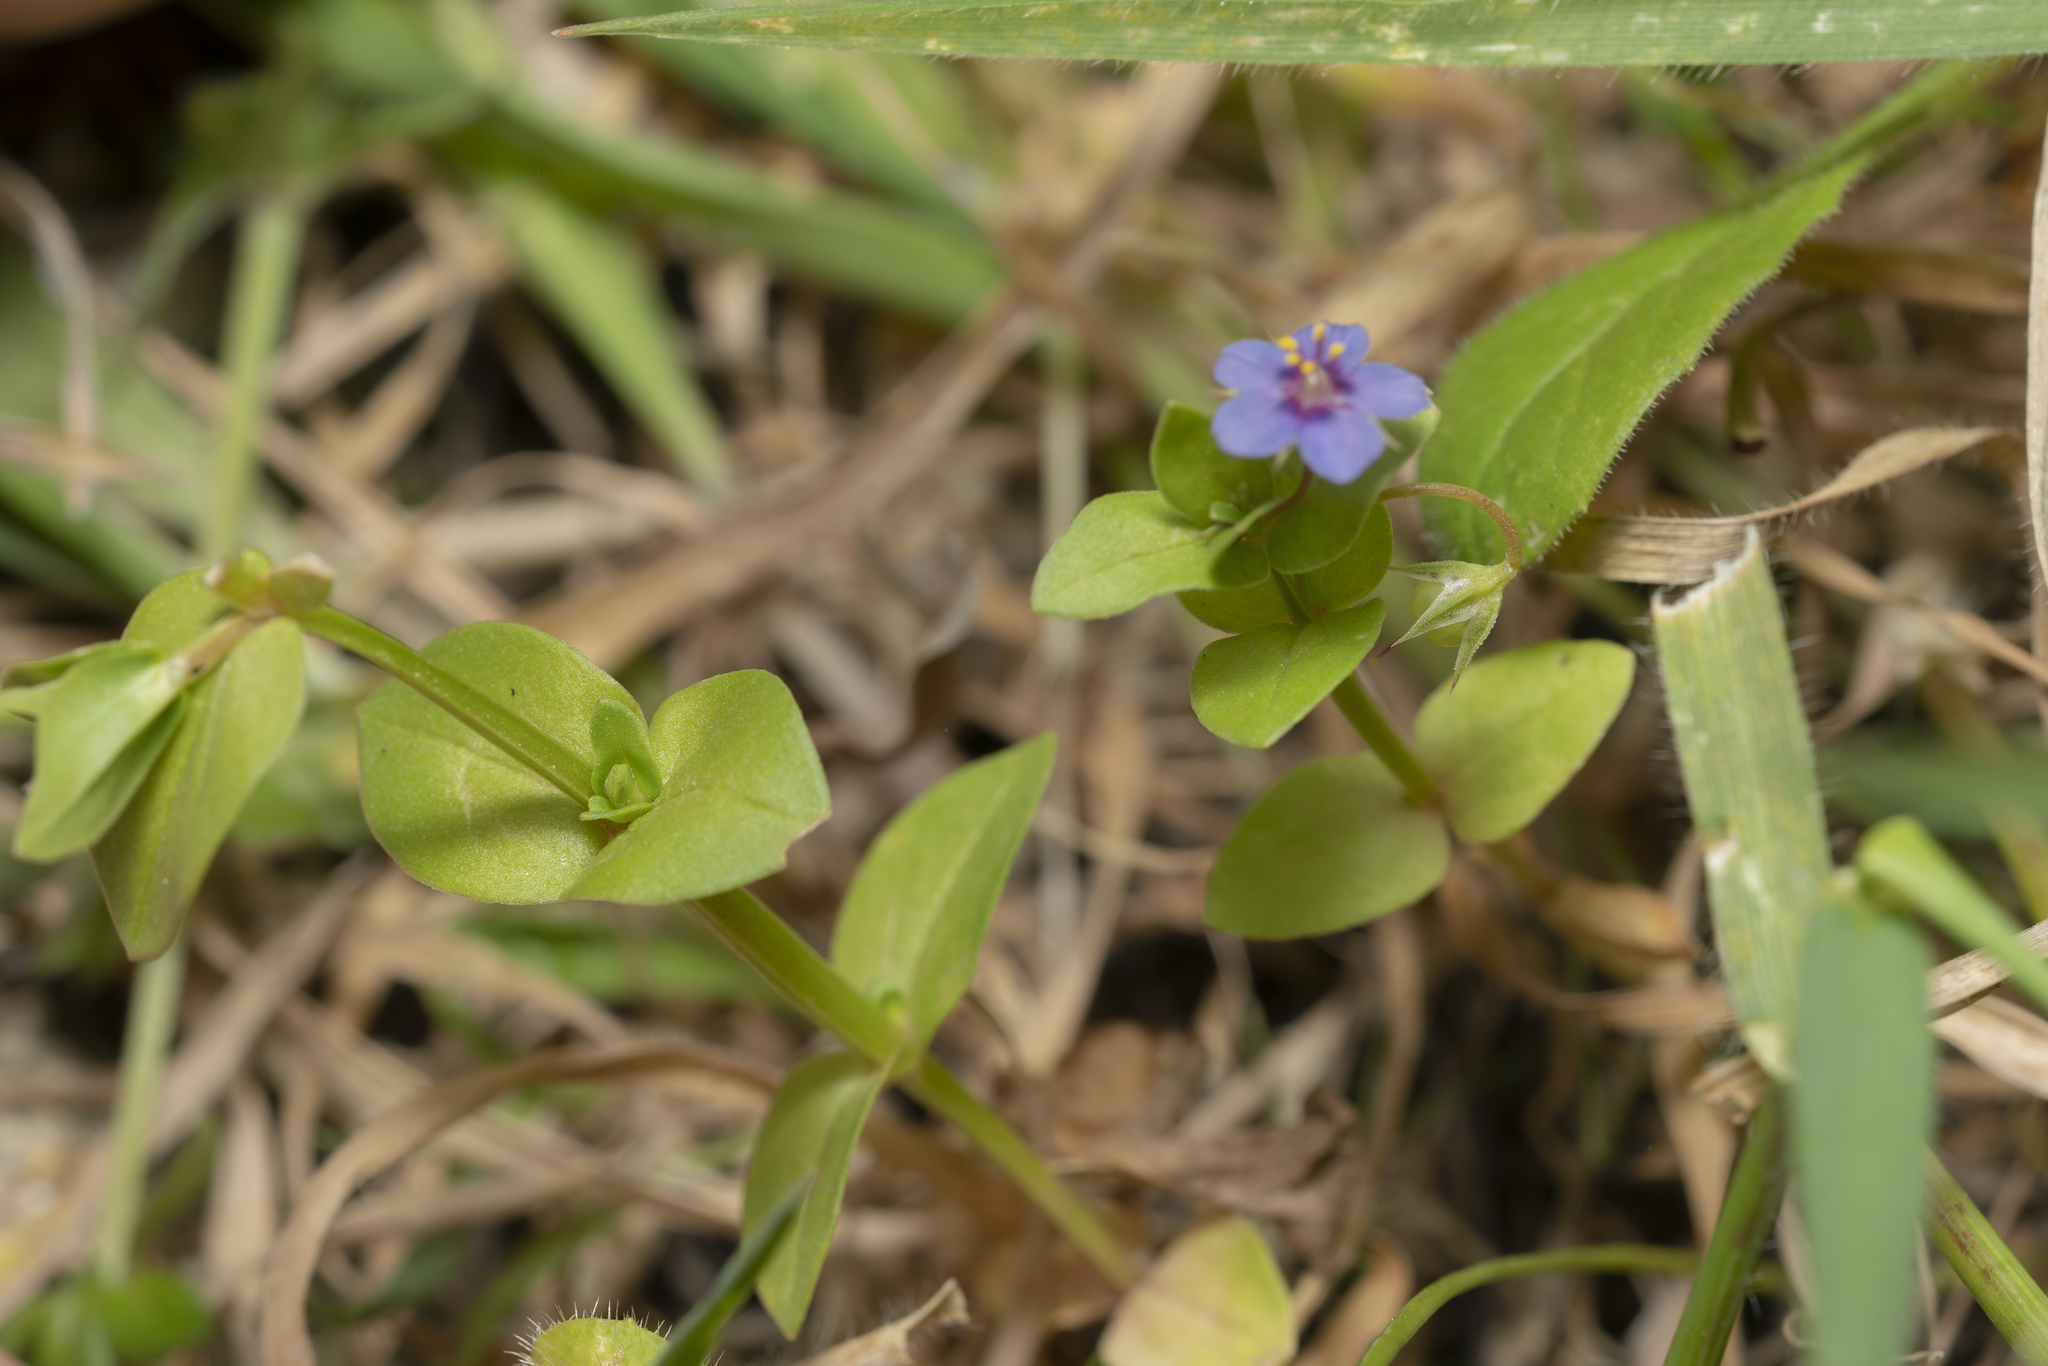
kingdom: Plantae
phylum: Tracheophyta
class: Magnoliopsida
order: Ericales
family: Primulaceae
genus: Lysimachia
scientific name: Lysimachia loeflingii
